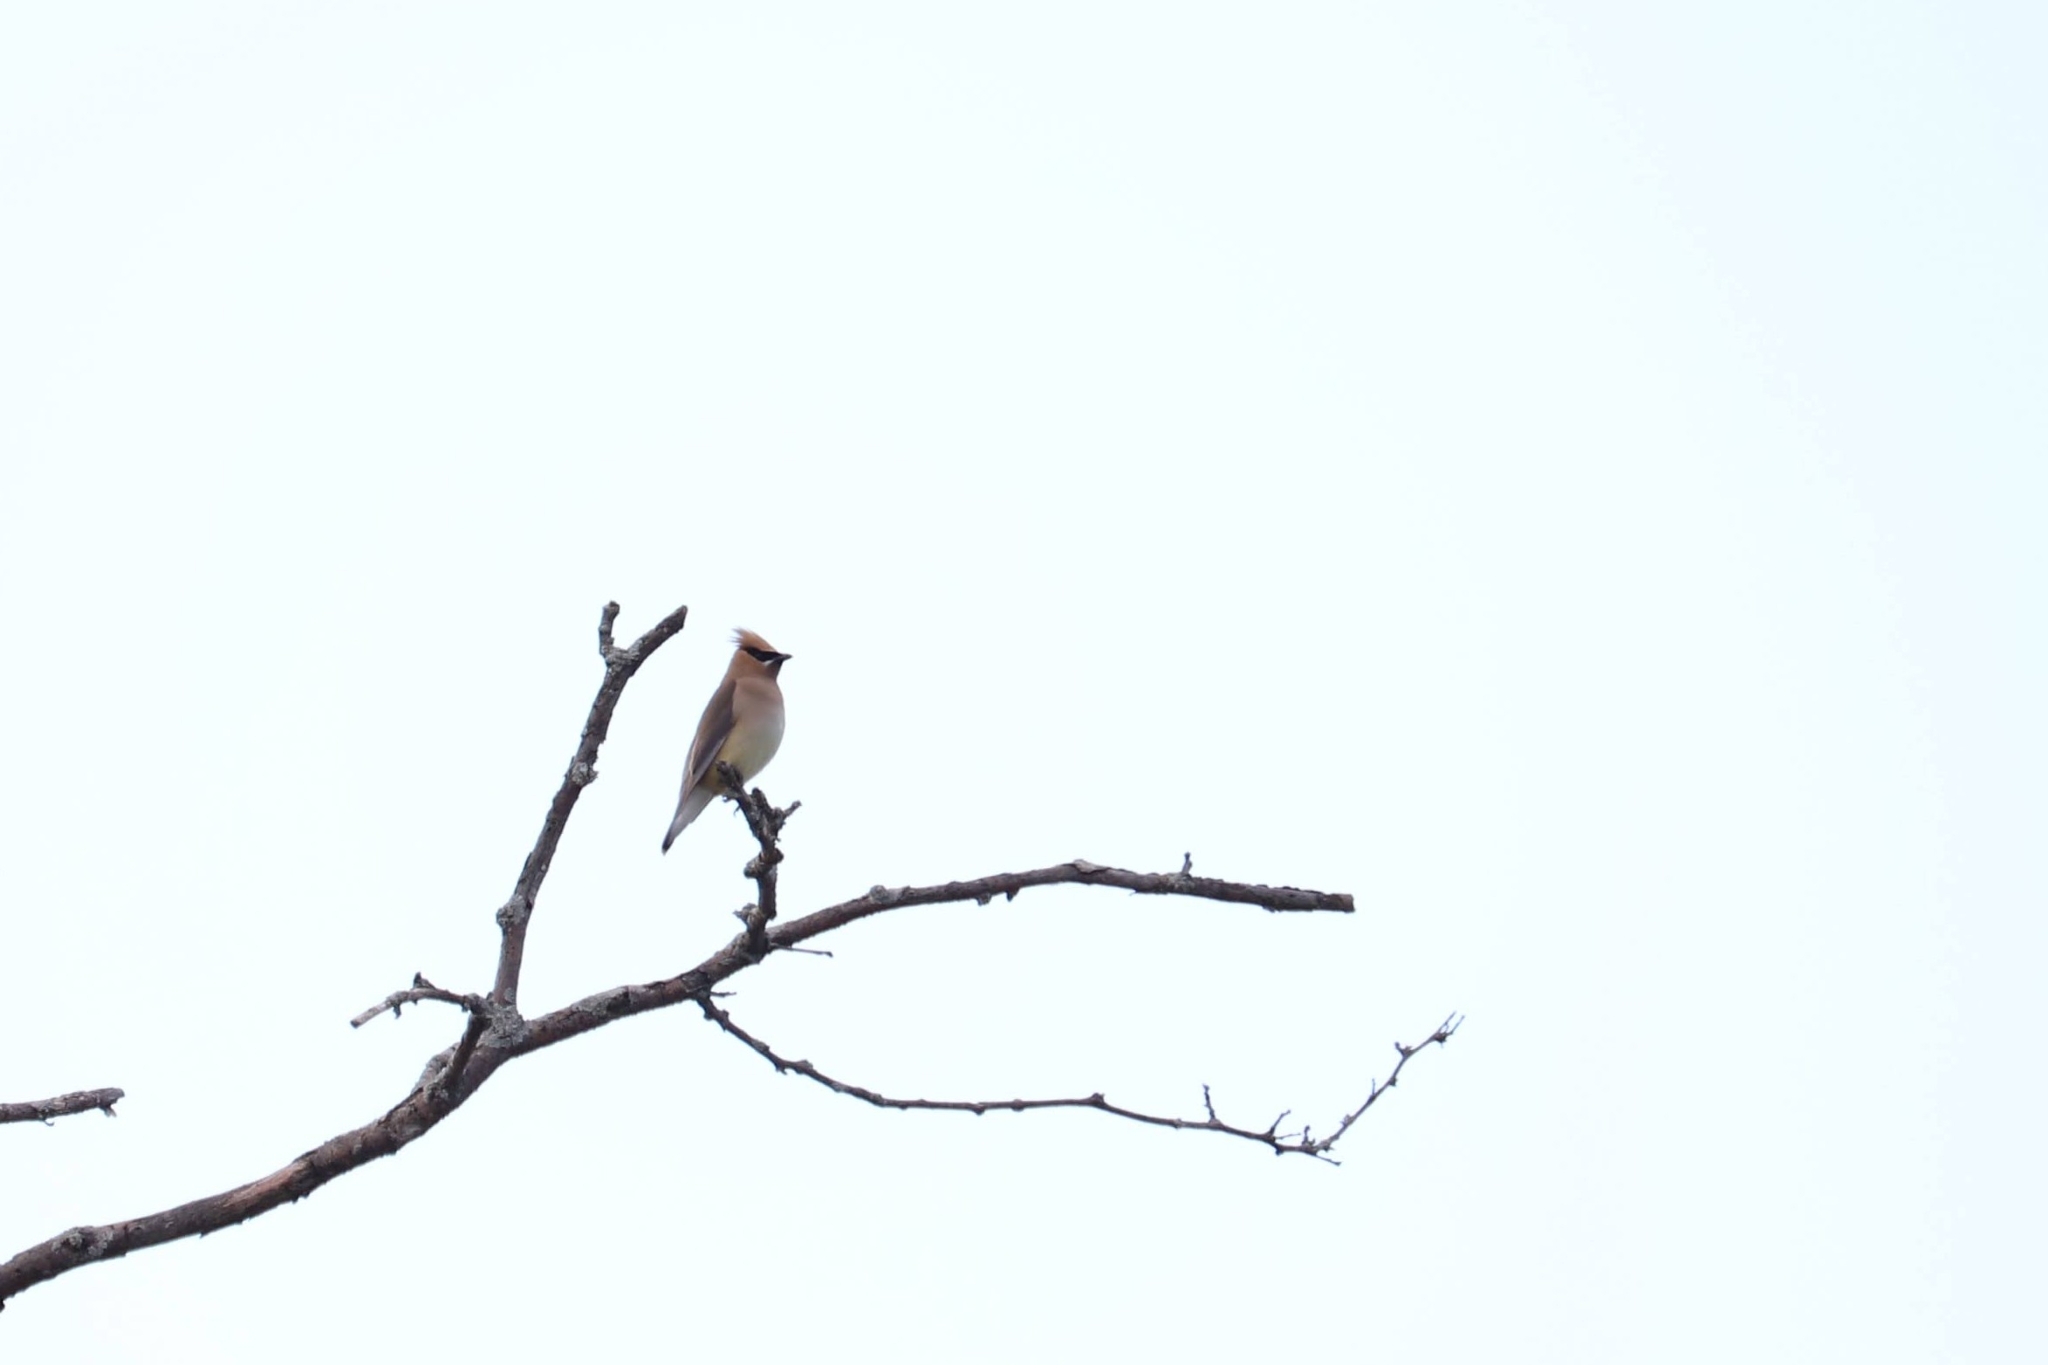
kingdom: Animalia
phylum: Chordata
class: Aves
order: Passeriformes
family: Bombycillidae
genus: Bombycilla
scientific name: Bombycilla cedrorum
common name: Cedar waxwing
